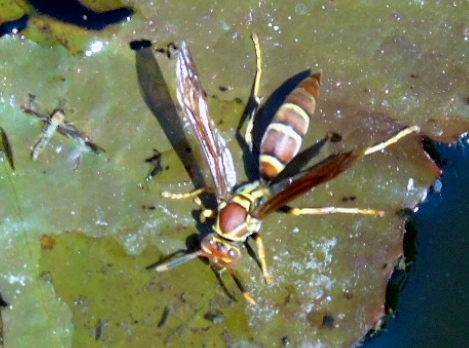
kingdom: Animalia
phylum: Arthropoda
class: Insecta
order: Hymenoptera
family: Eumenidae
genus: Polistes
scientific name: Polistes instabilis
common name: Unstable paper wasp
